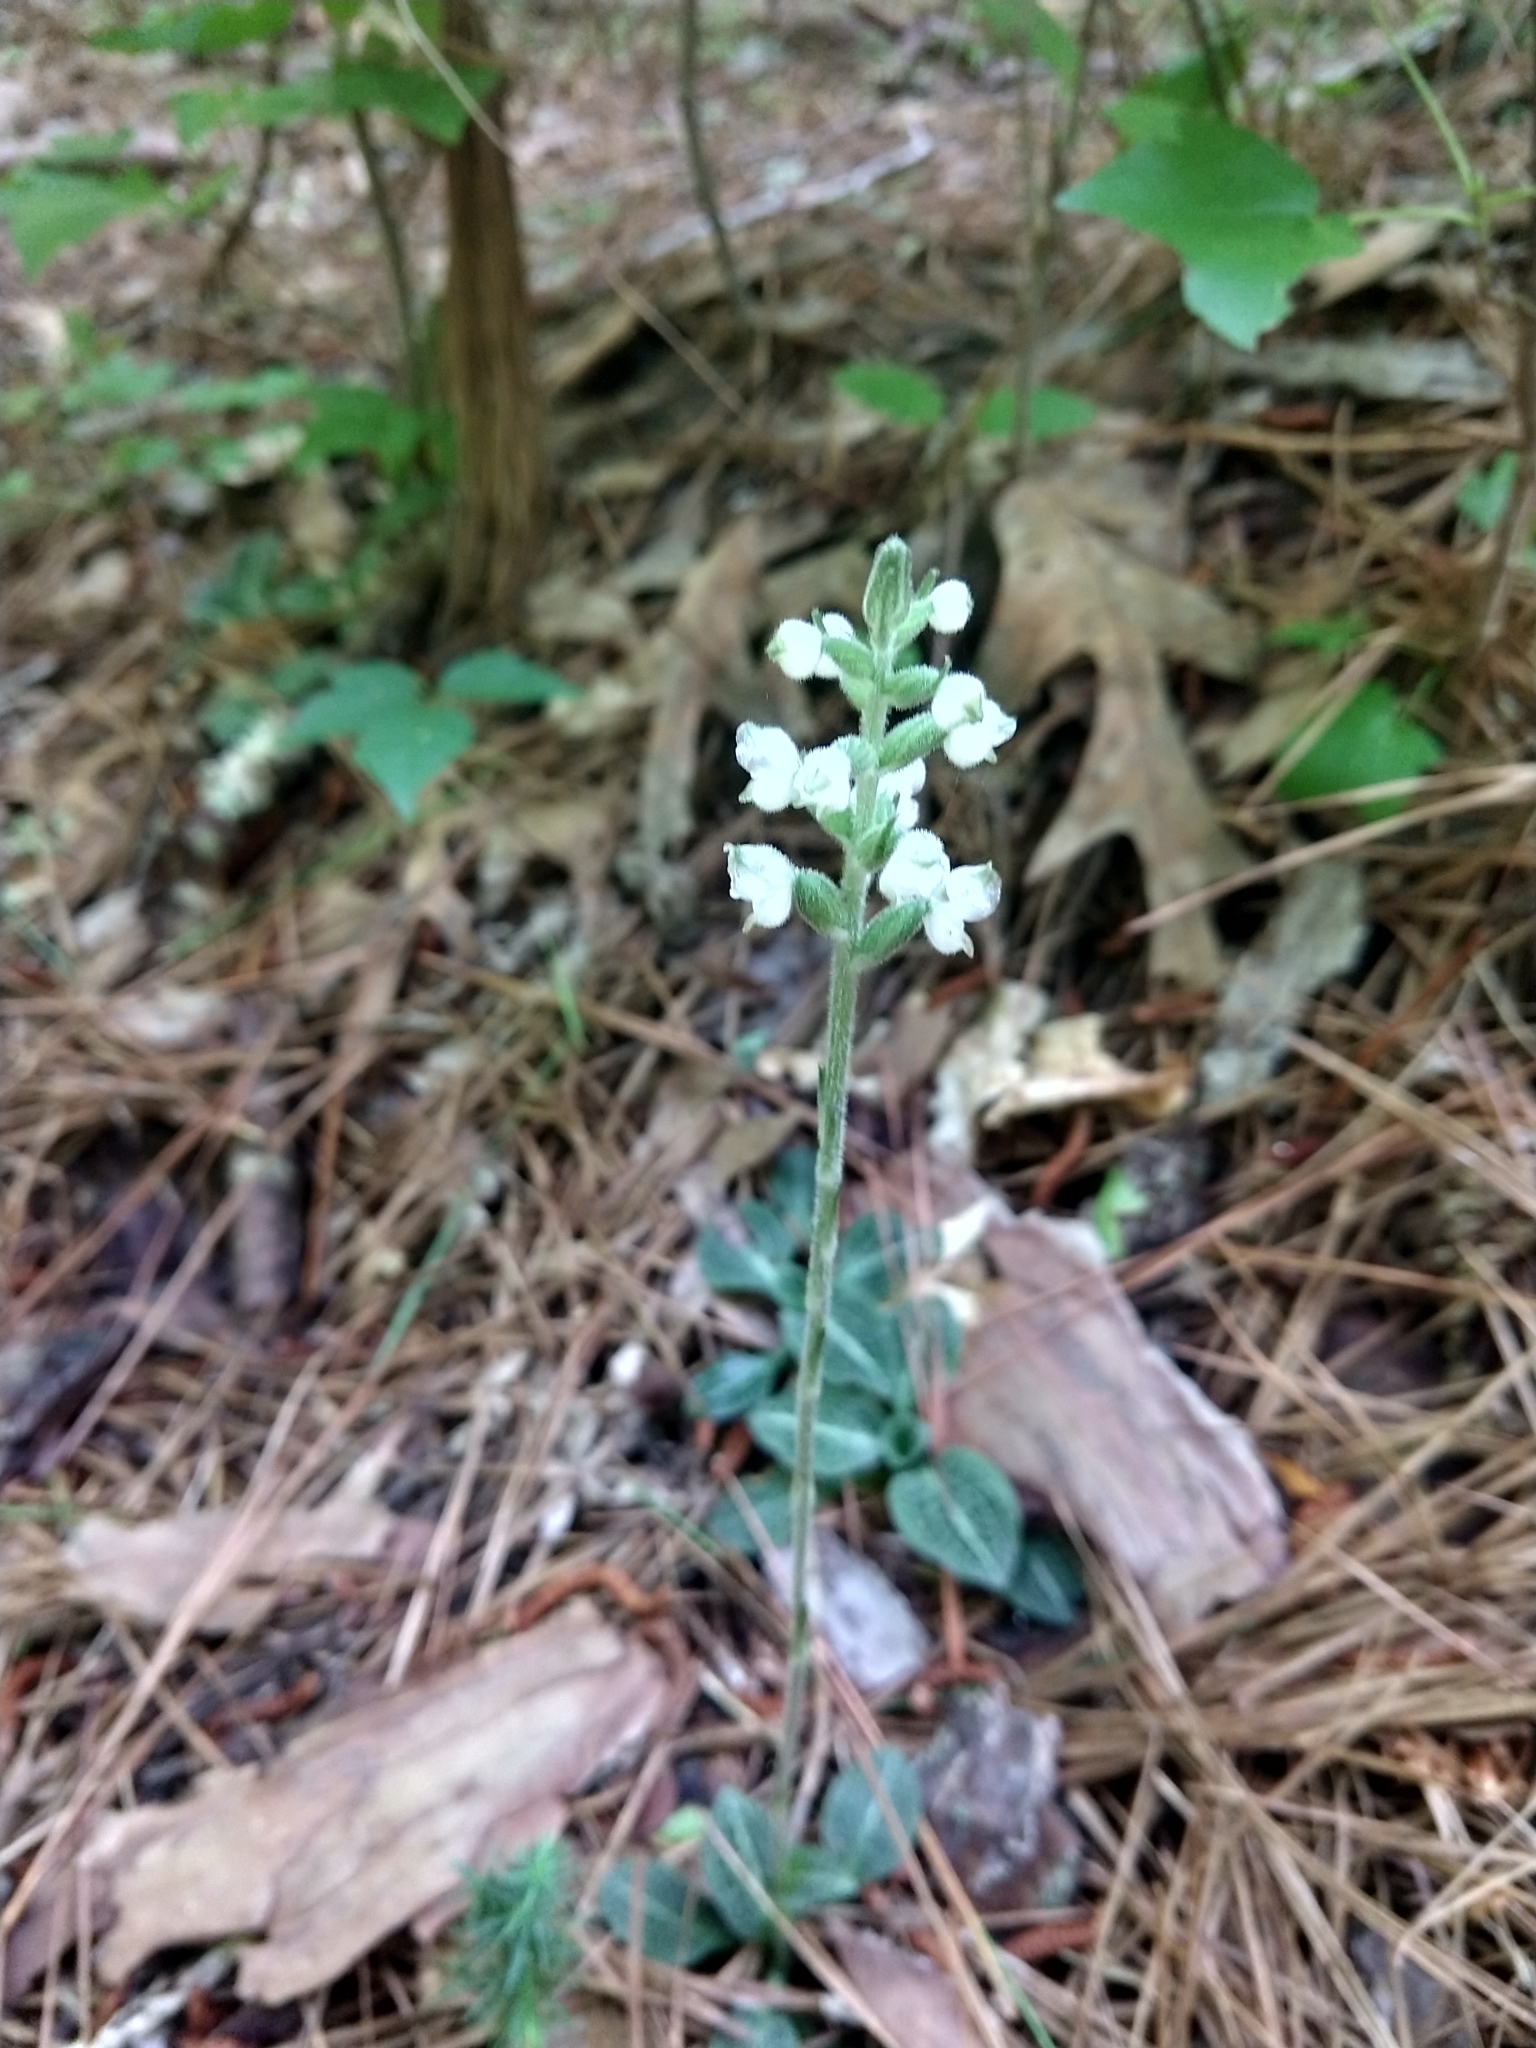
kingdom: Plantae
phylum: Tracheophyta
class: Liliopsida
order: Asparagales
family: Orchidaceae
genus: Goodyera
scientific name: Goodyera pubescens
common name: Downy rattlesnake-plantain
